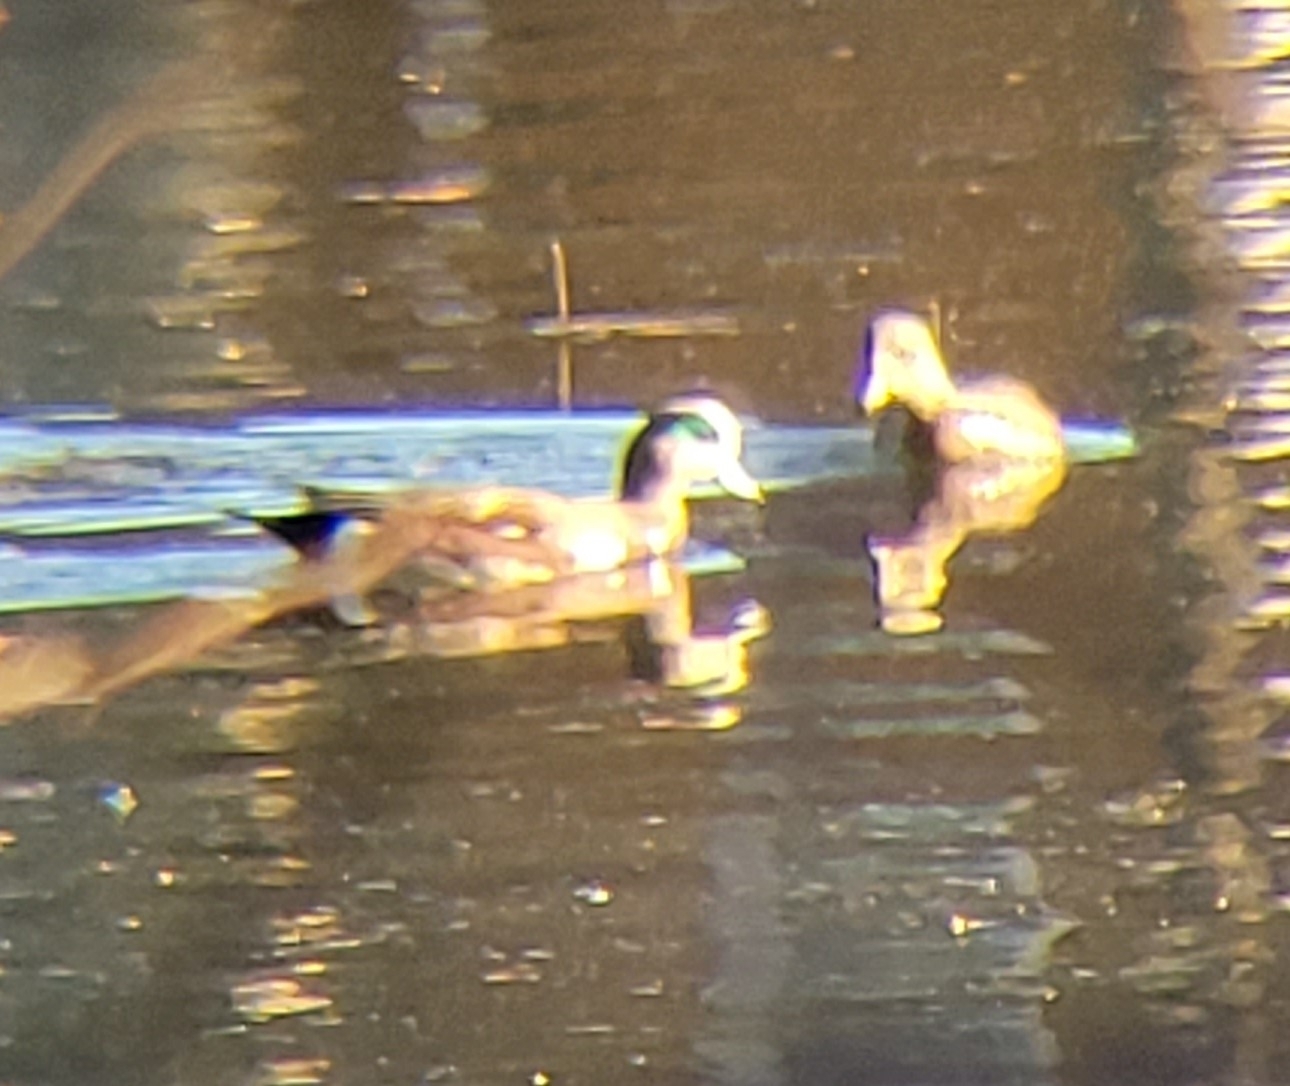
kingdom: Animalia
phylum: Chordata
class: Aves
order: Anseriformes
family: Anatidae
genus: Mareca
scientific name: Mareca americana
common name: American wigeon
